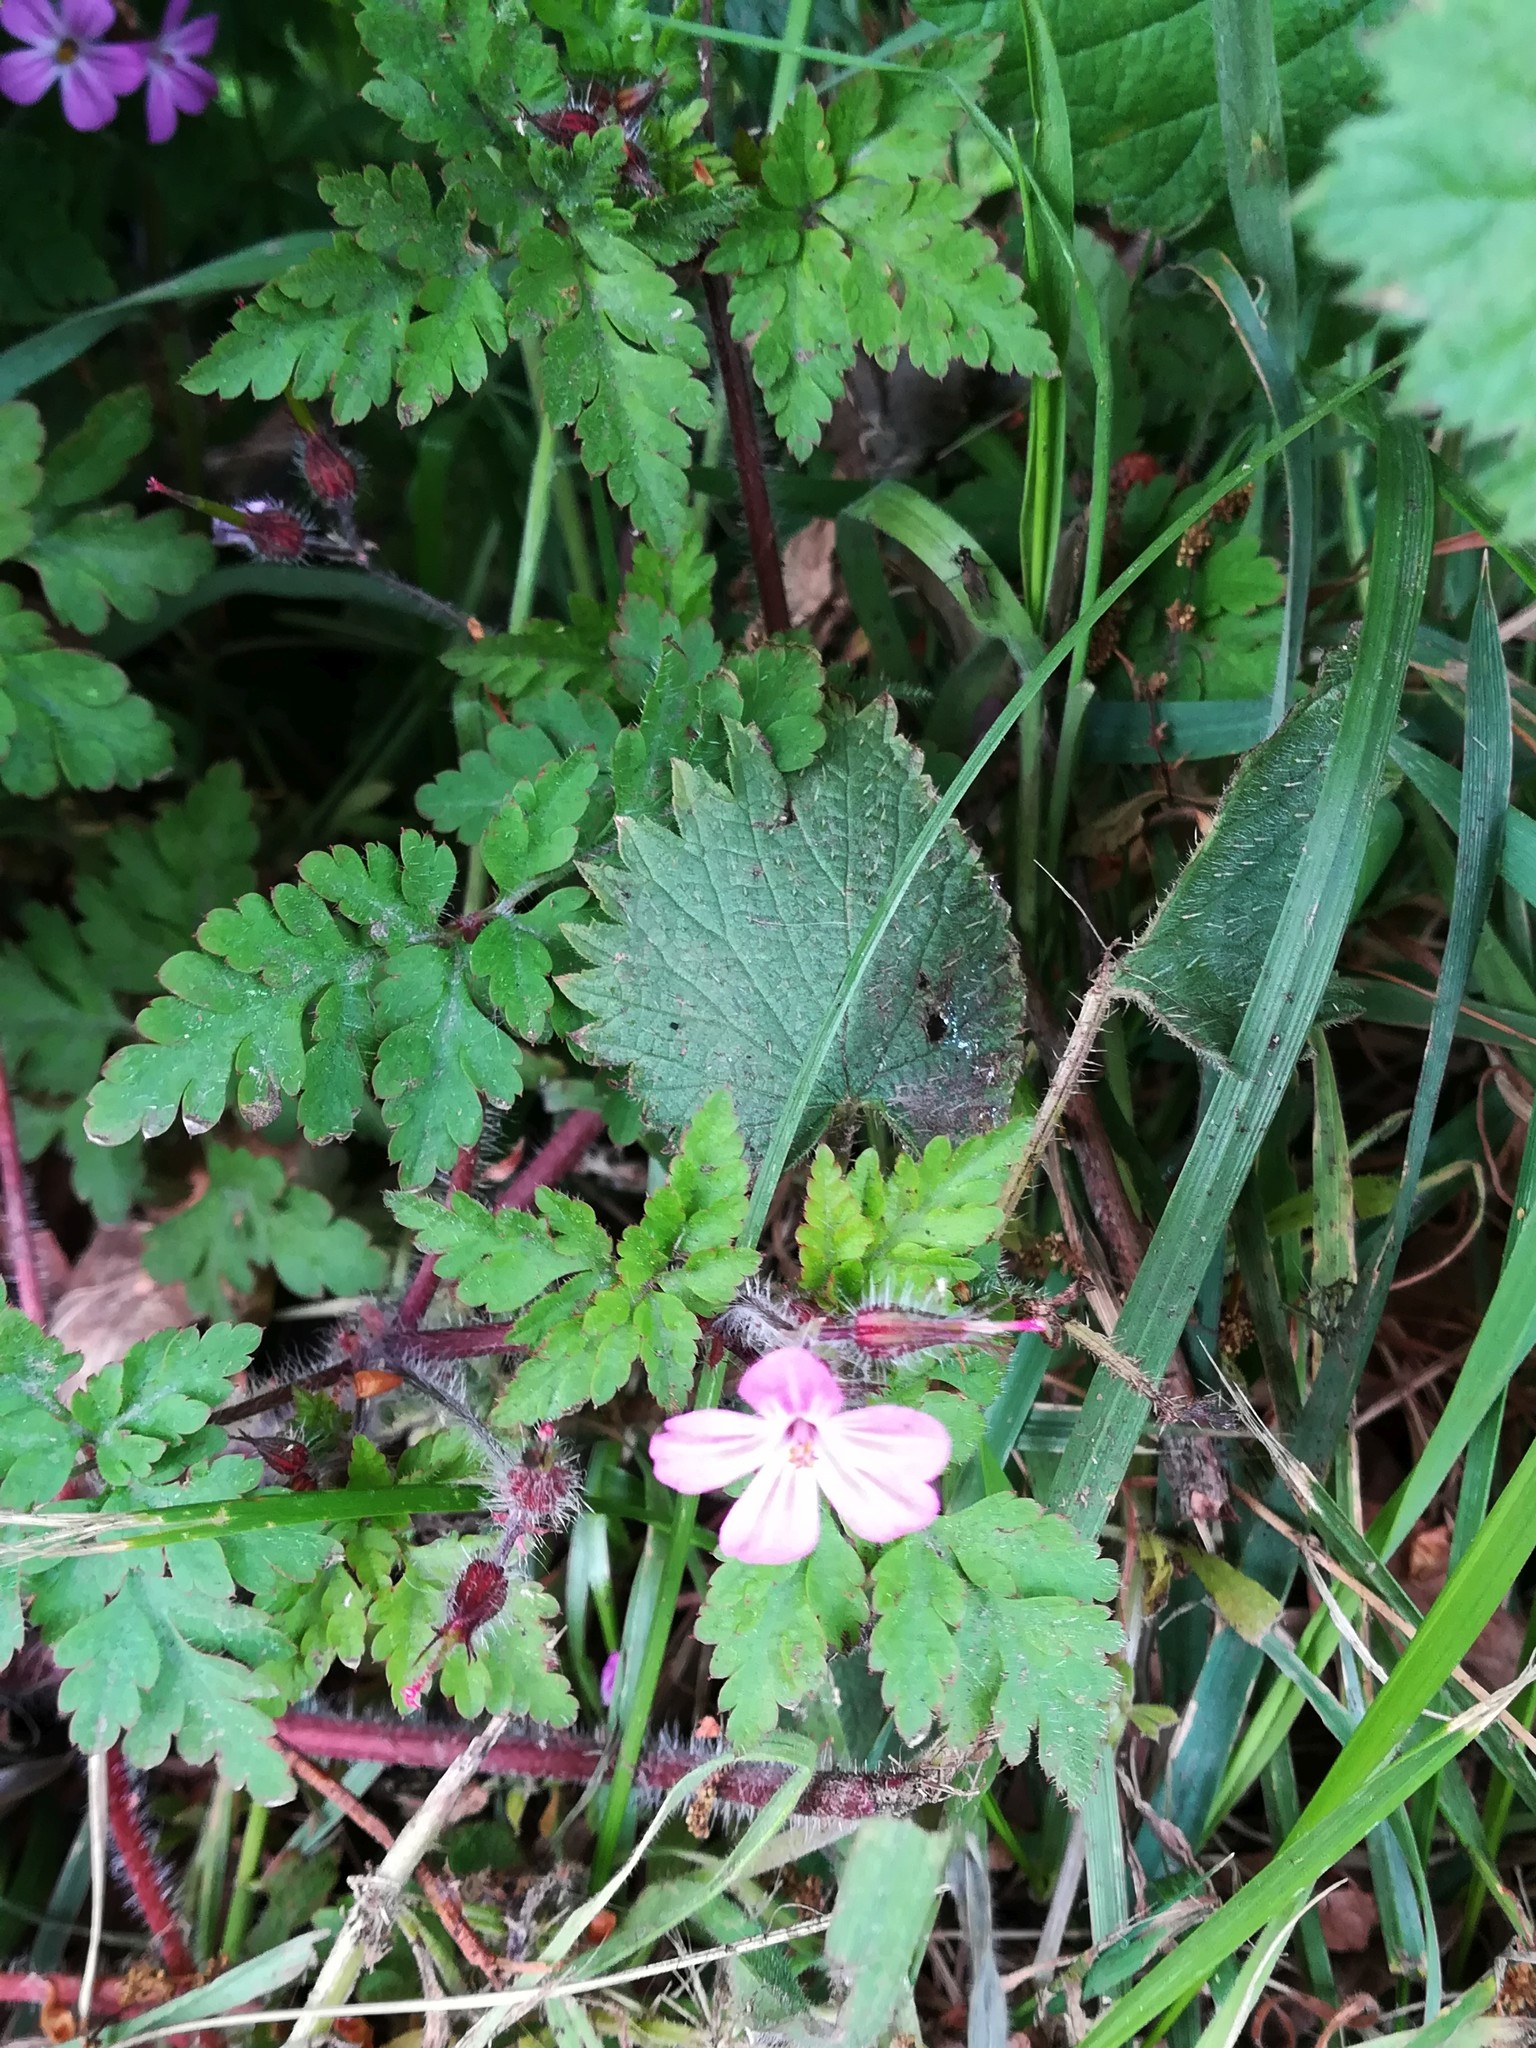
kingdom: Plantae
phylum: Tracheophyta
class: Magnoliopsida
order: Geraniales
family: Geraniaceae
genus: Geranium
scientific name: Geranium robertianum
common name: Herb-robert
